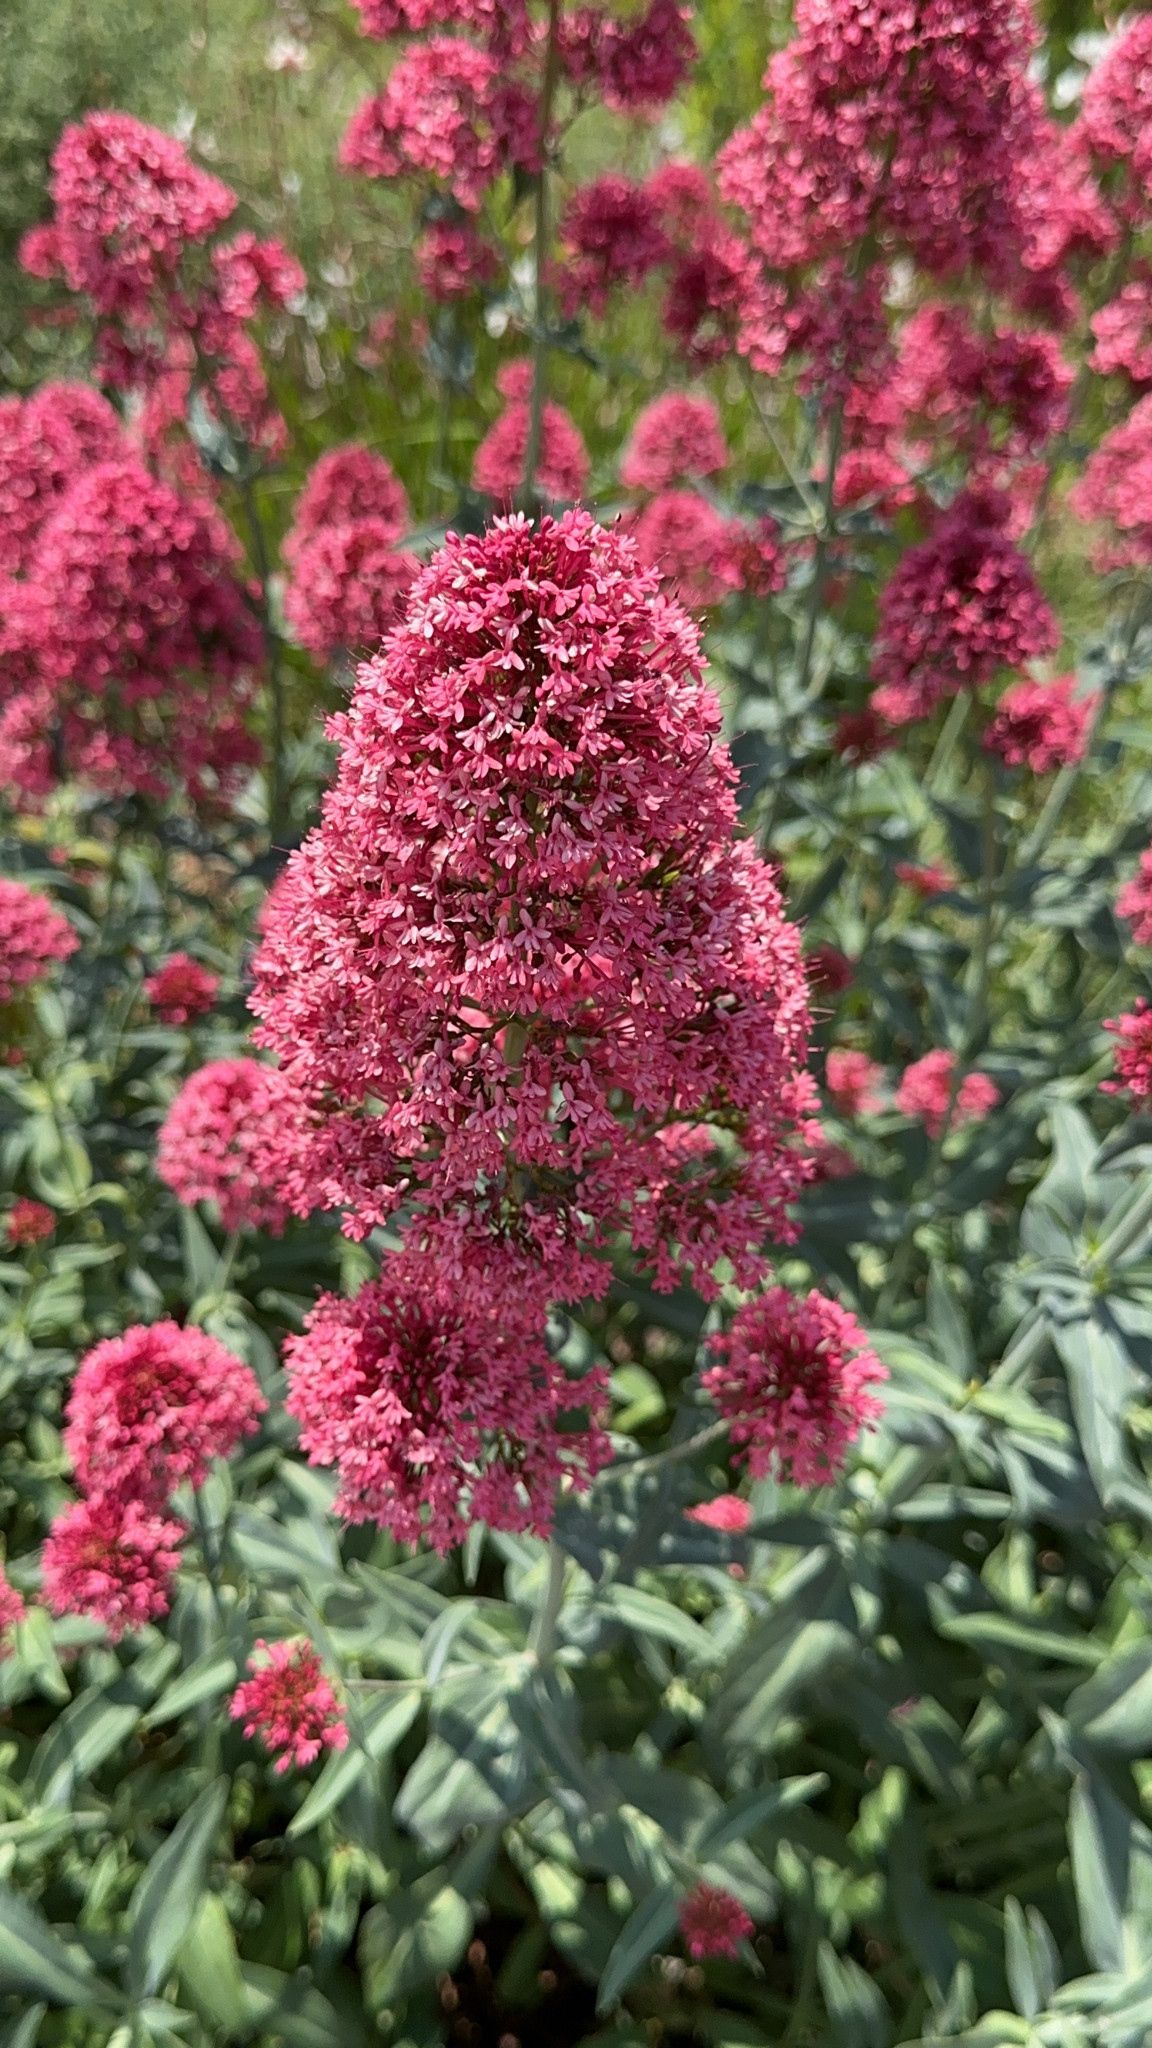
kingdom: Plantae
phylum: Tracheophyta
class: Magnoliopsida
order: Dipsacales
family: Caprifoliaceae
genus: Centranthus
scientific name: Centranthus ruber
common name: Red valerian
